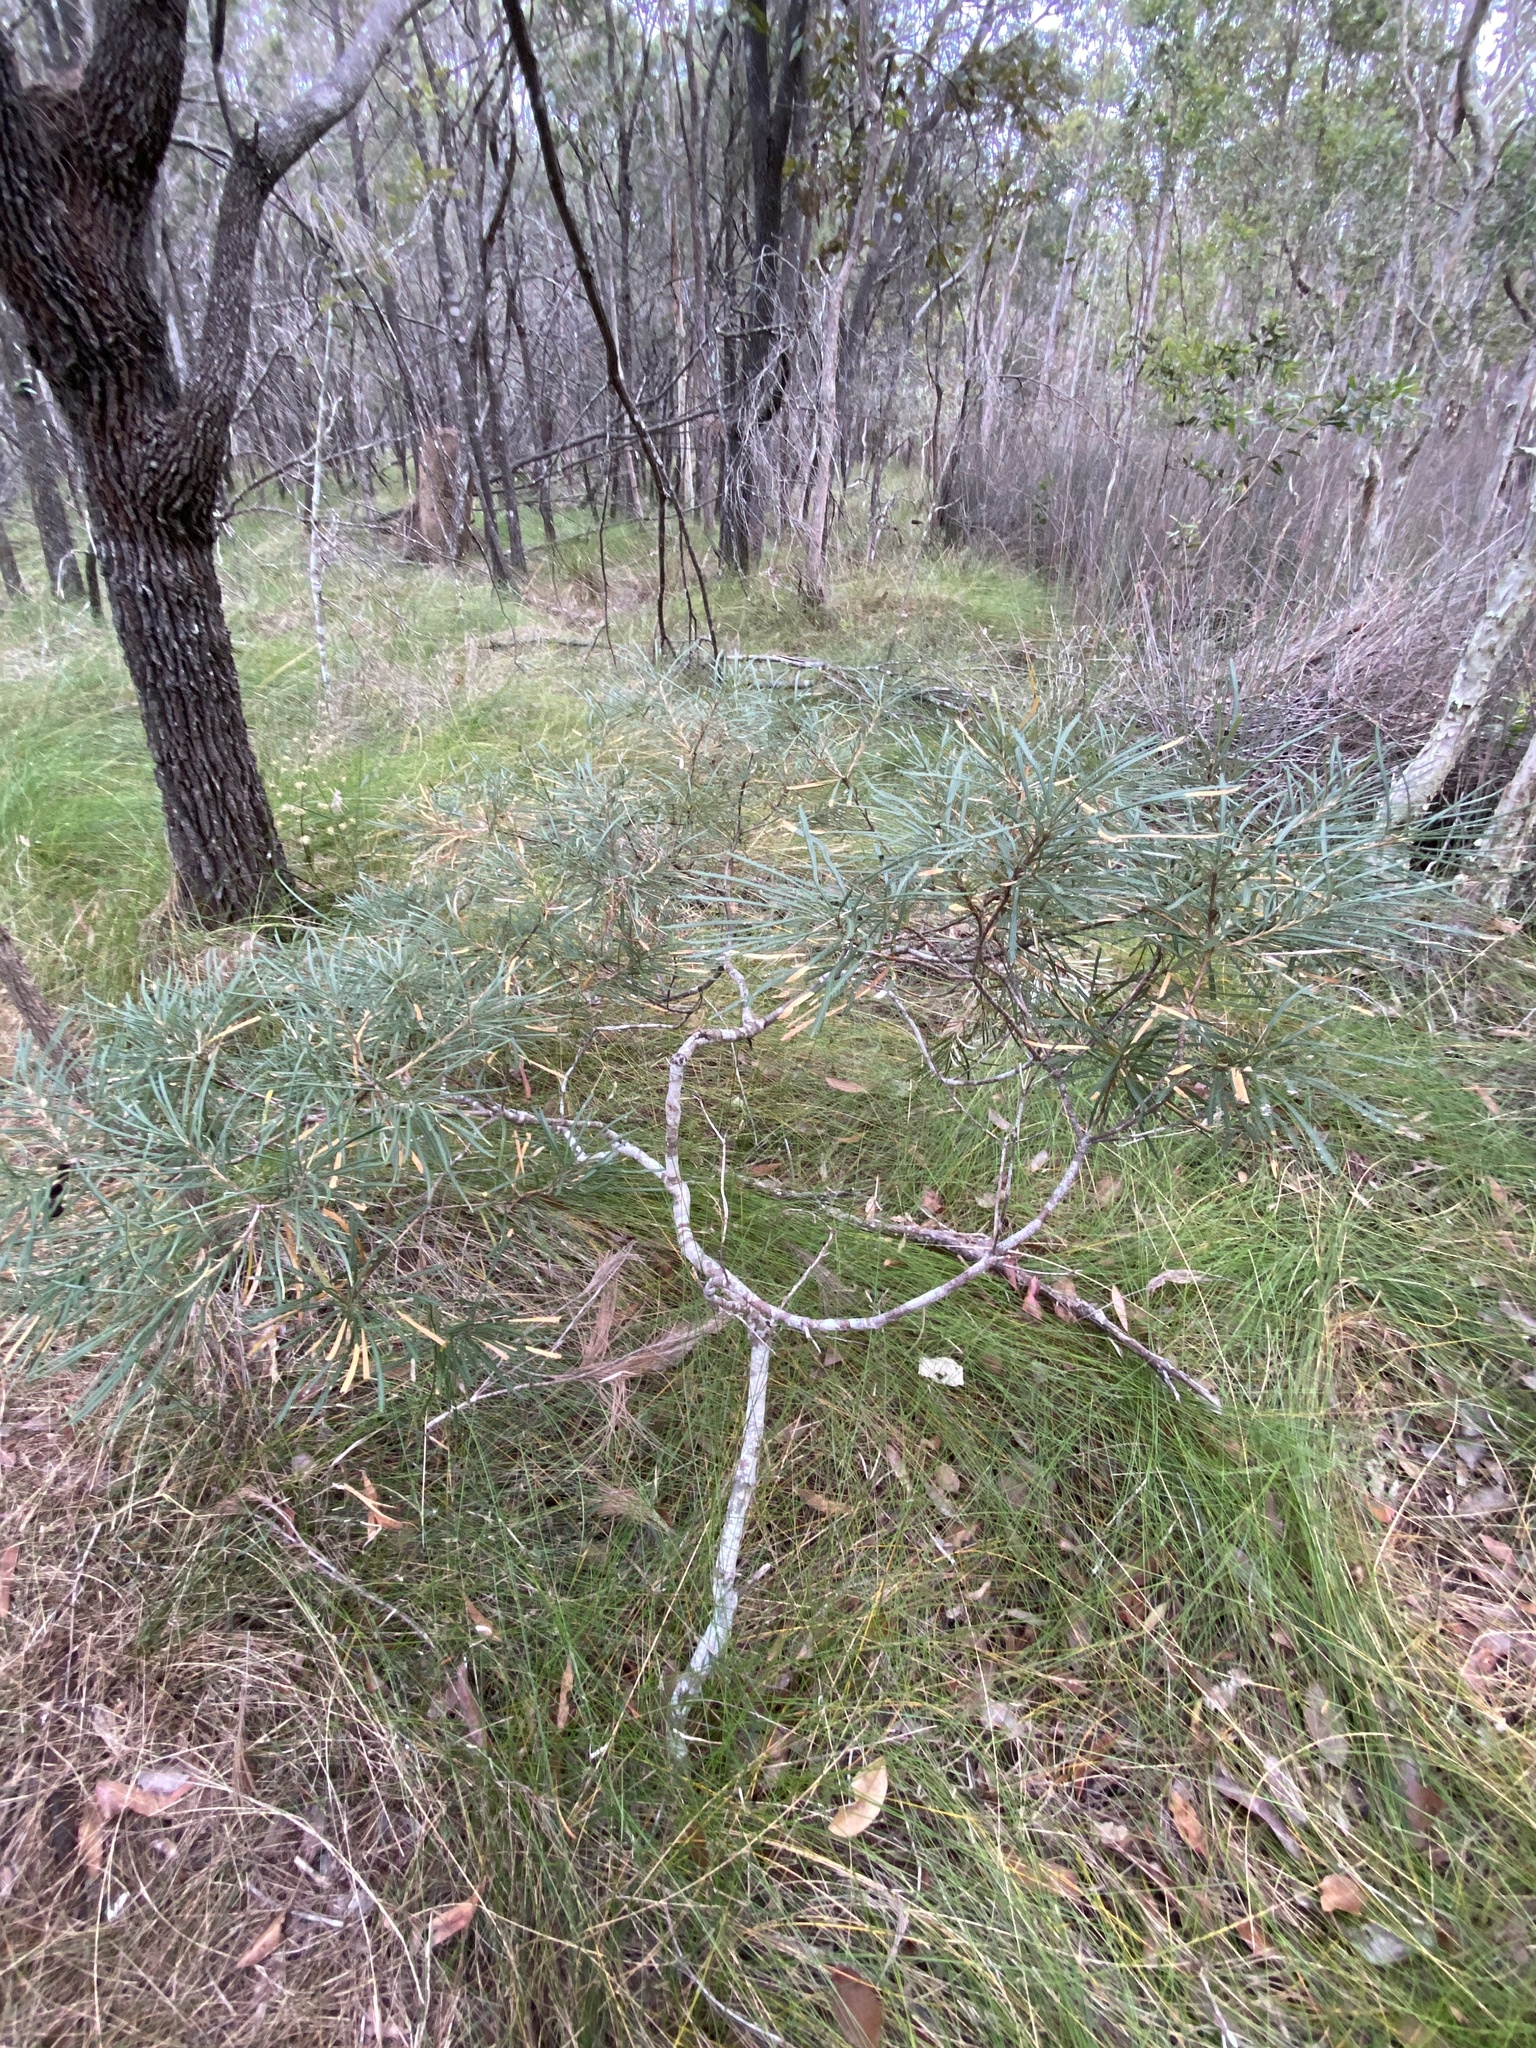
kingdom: Plantae
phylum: Tracheophyta
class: Magnoliopsida
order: Proteales
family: Proteaceae
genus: Banksia
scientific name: Banksia spinulosa
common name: Hairpin banksia
